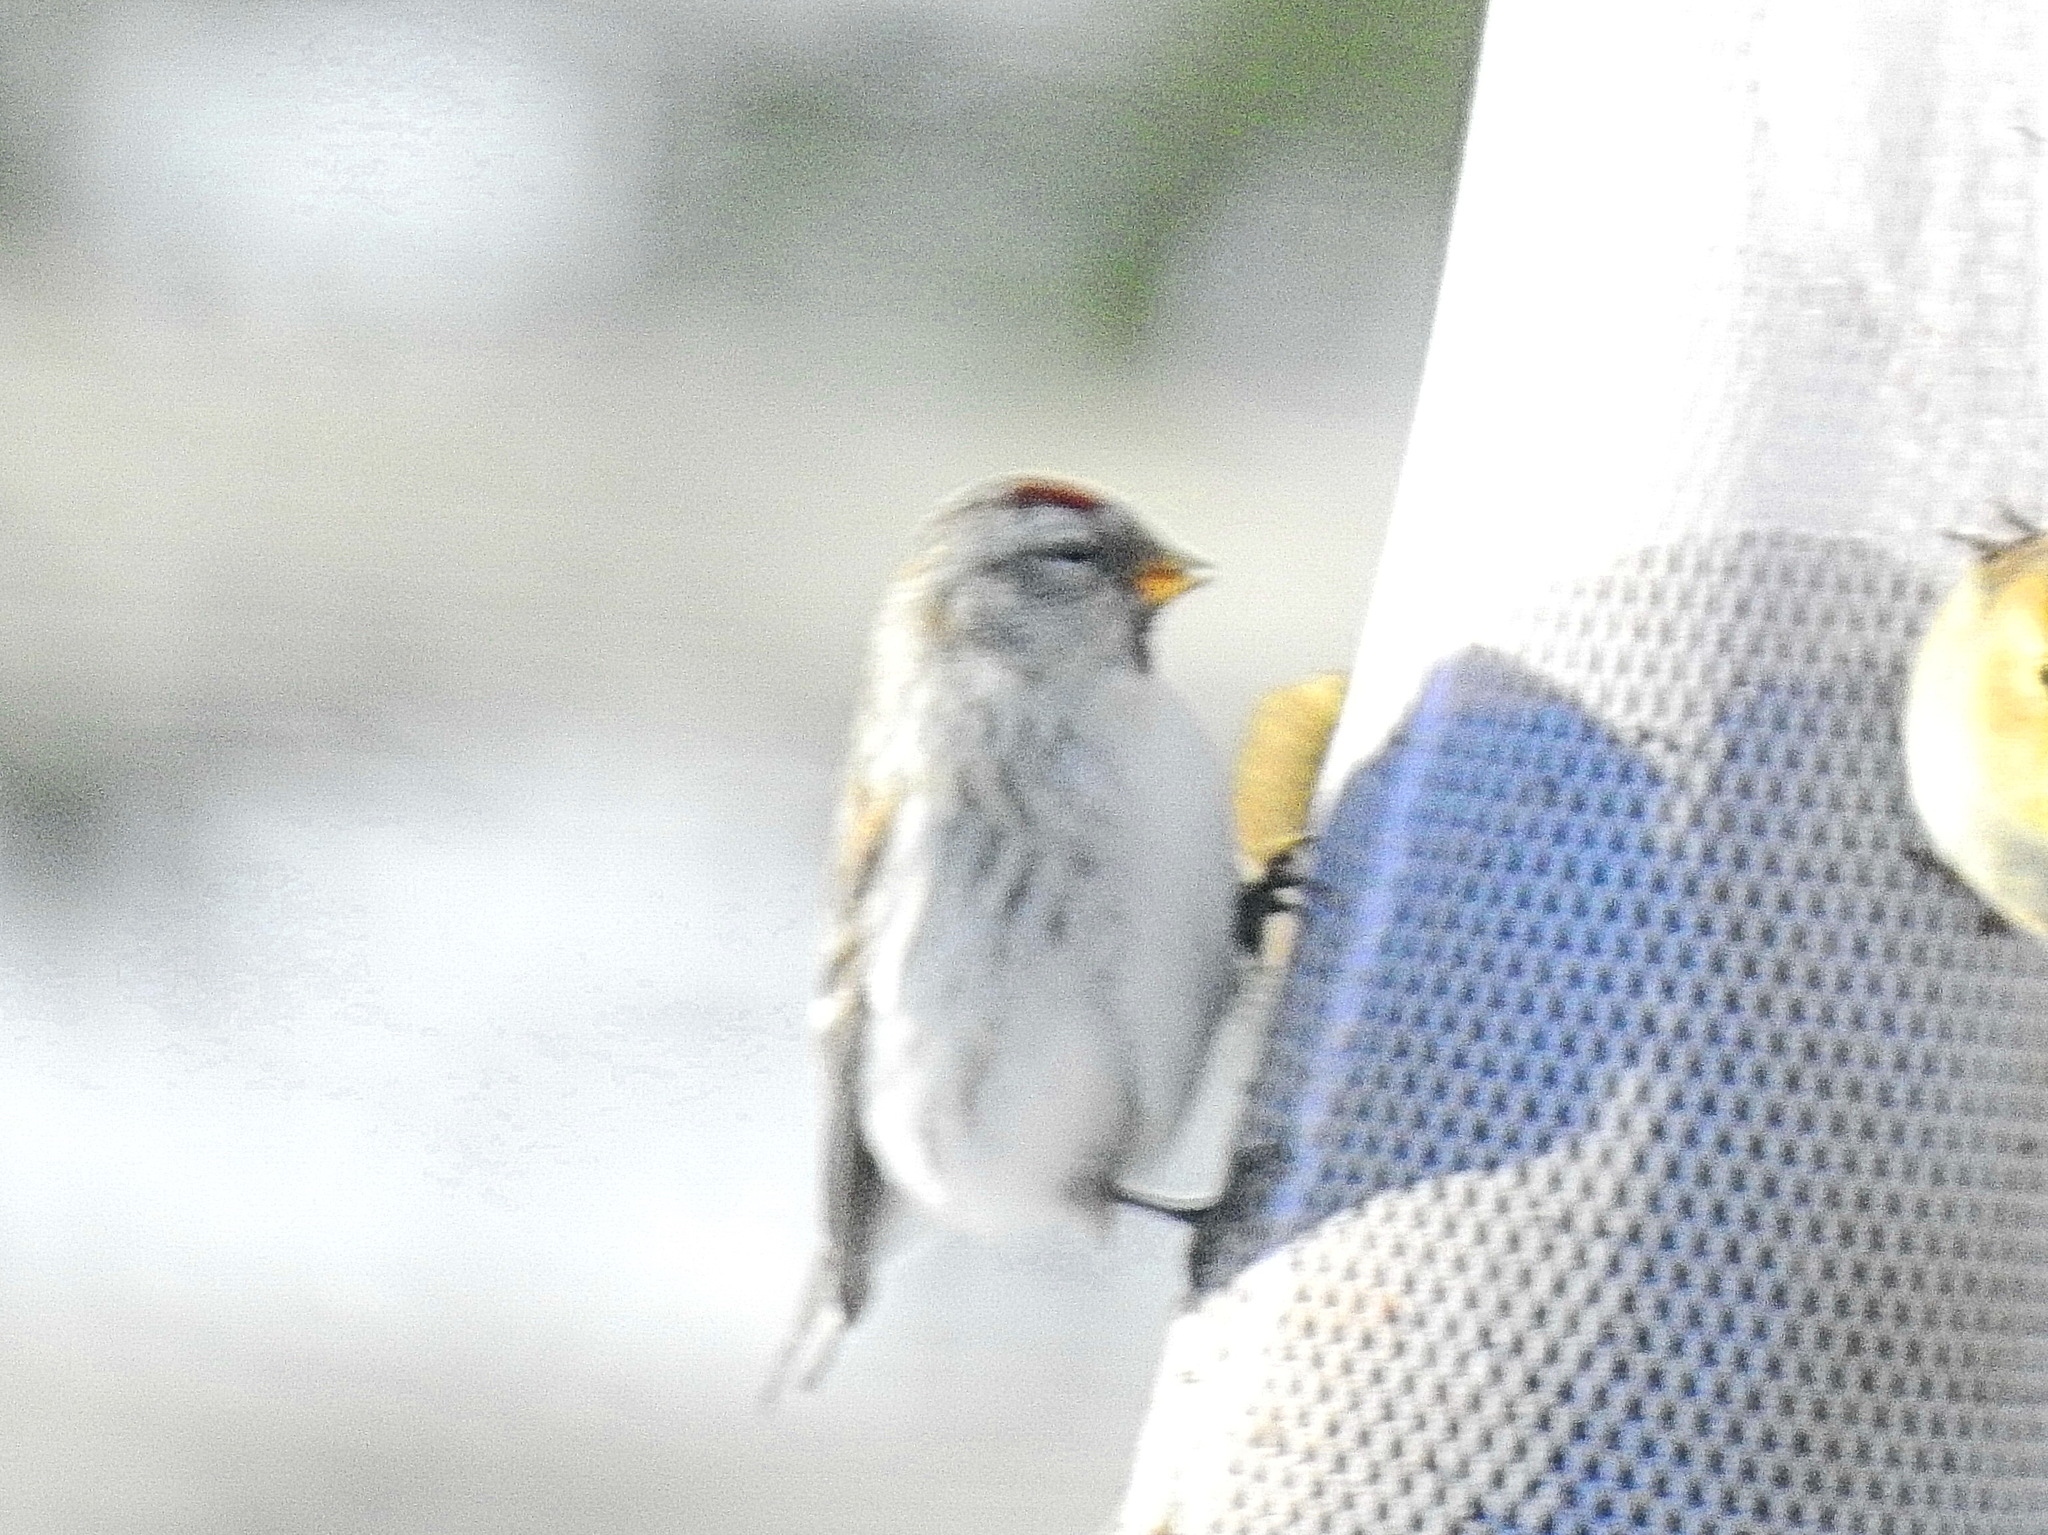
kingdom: Animalia
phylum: Chordata
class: Aves
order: Passeriformes
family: Fringillidae
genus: Acanthis
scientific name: Acanthis hornemanni
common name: Arctic redpoll
